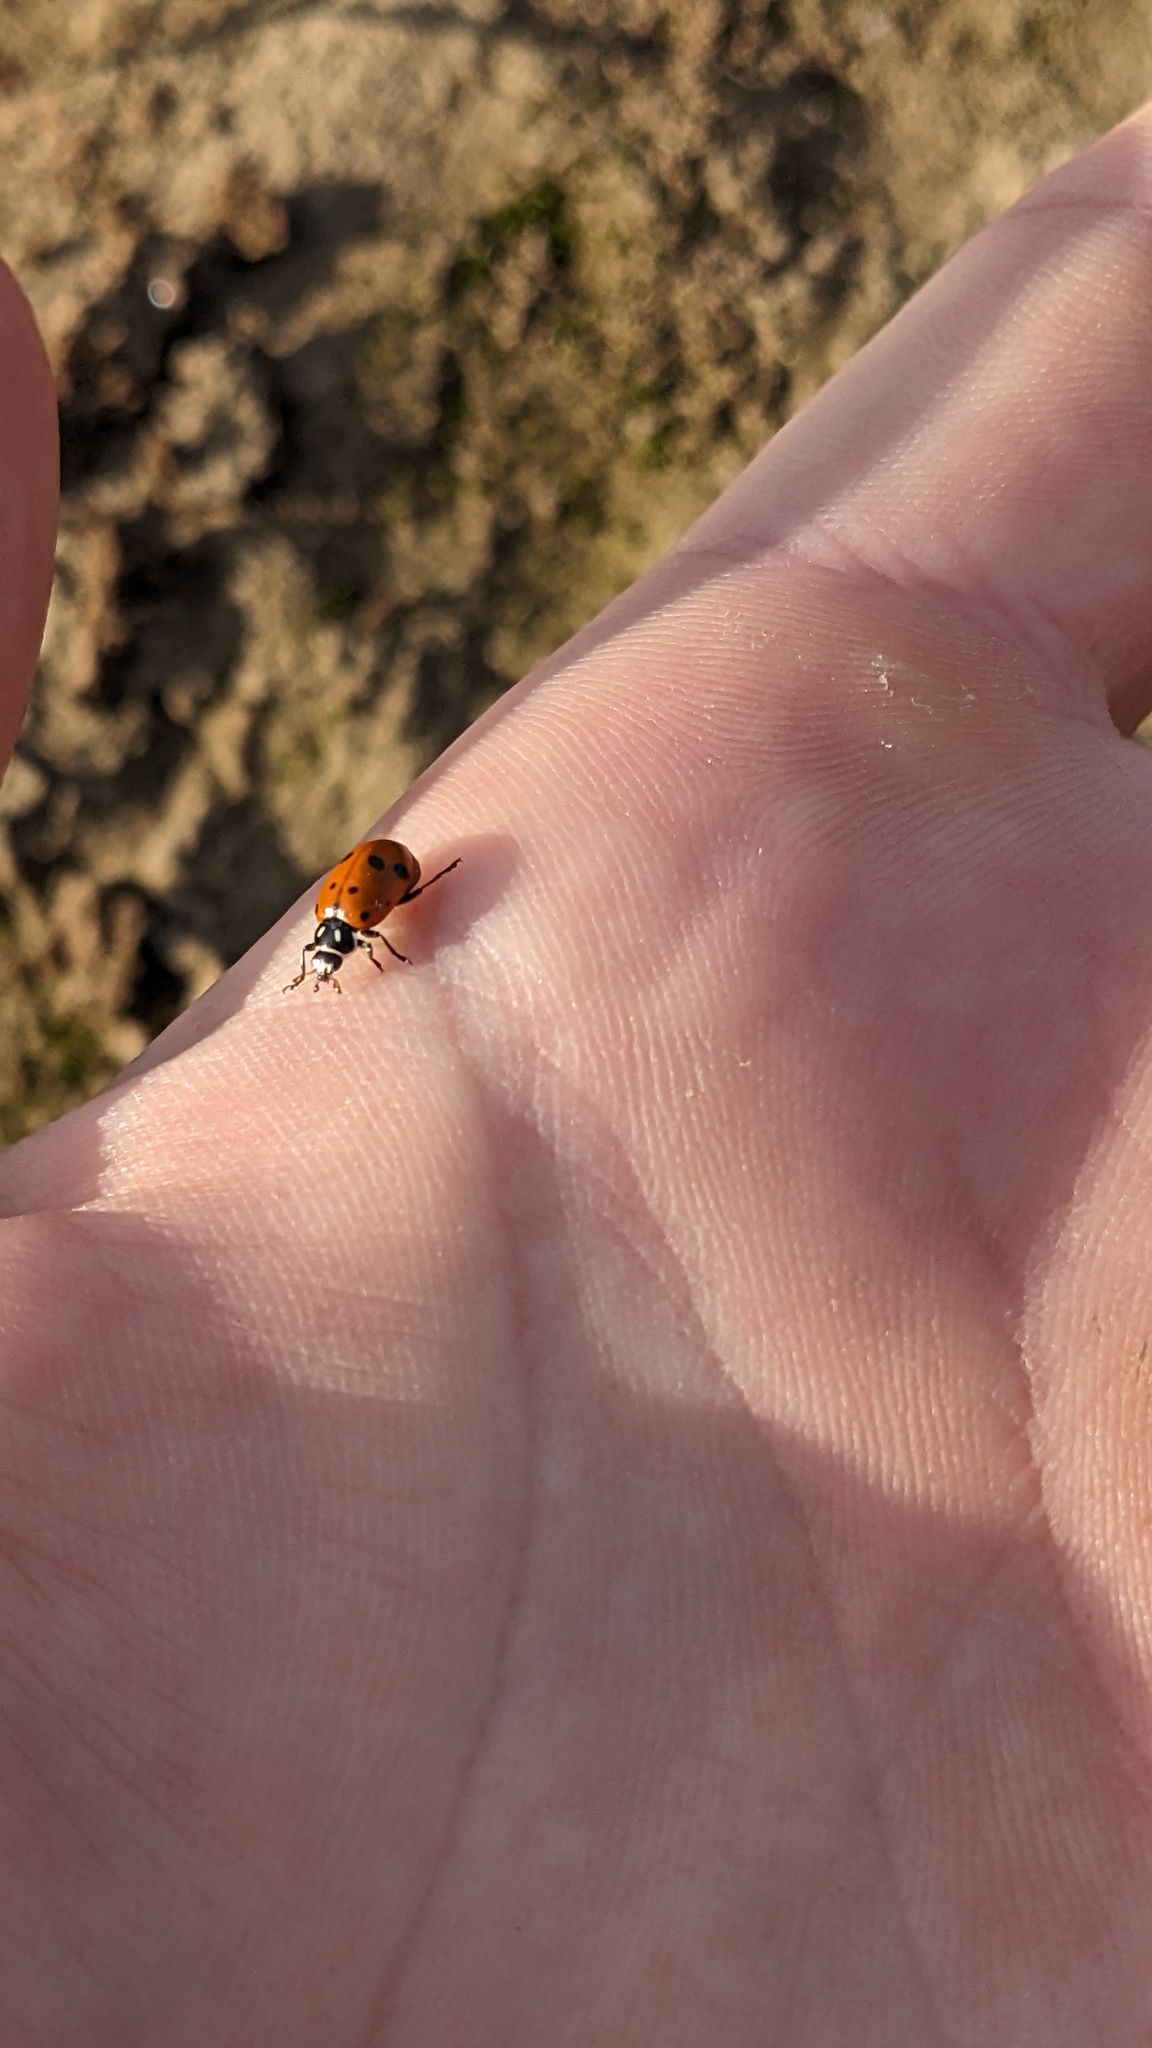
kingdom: Animalia
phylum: Arthropoda
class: Insecta
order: Coleoptera
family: Coccinellidae
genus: Hippodamia
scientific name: Hippodamia convergens
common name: Convergent lady beetle
